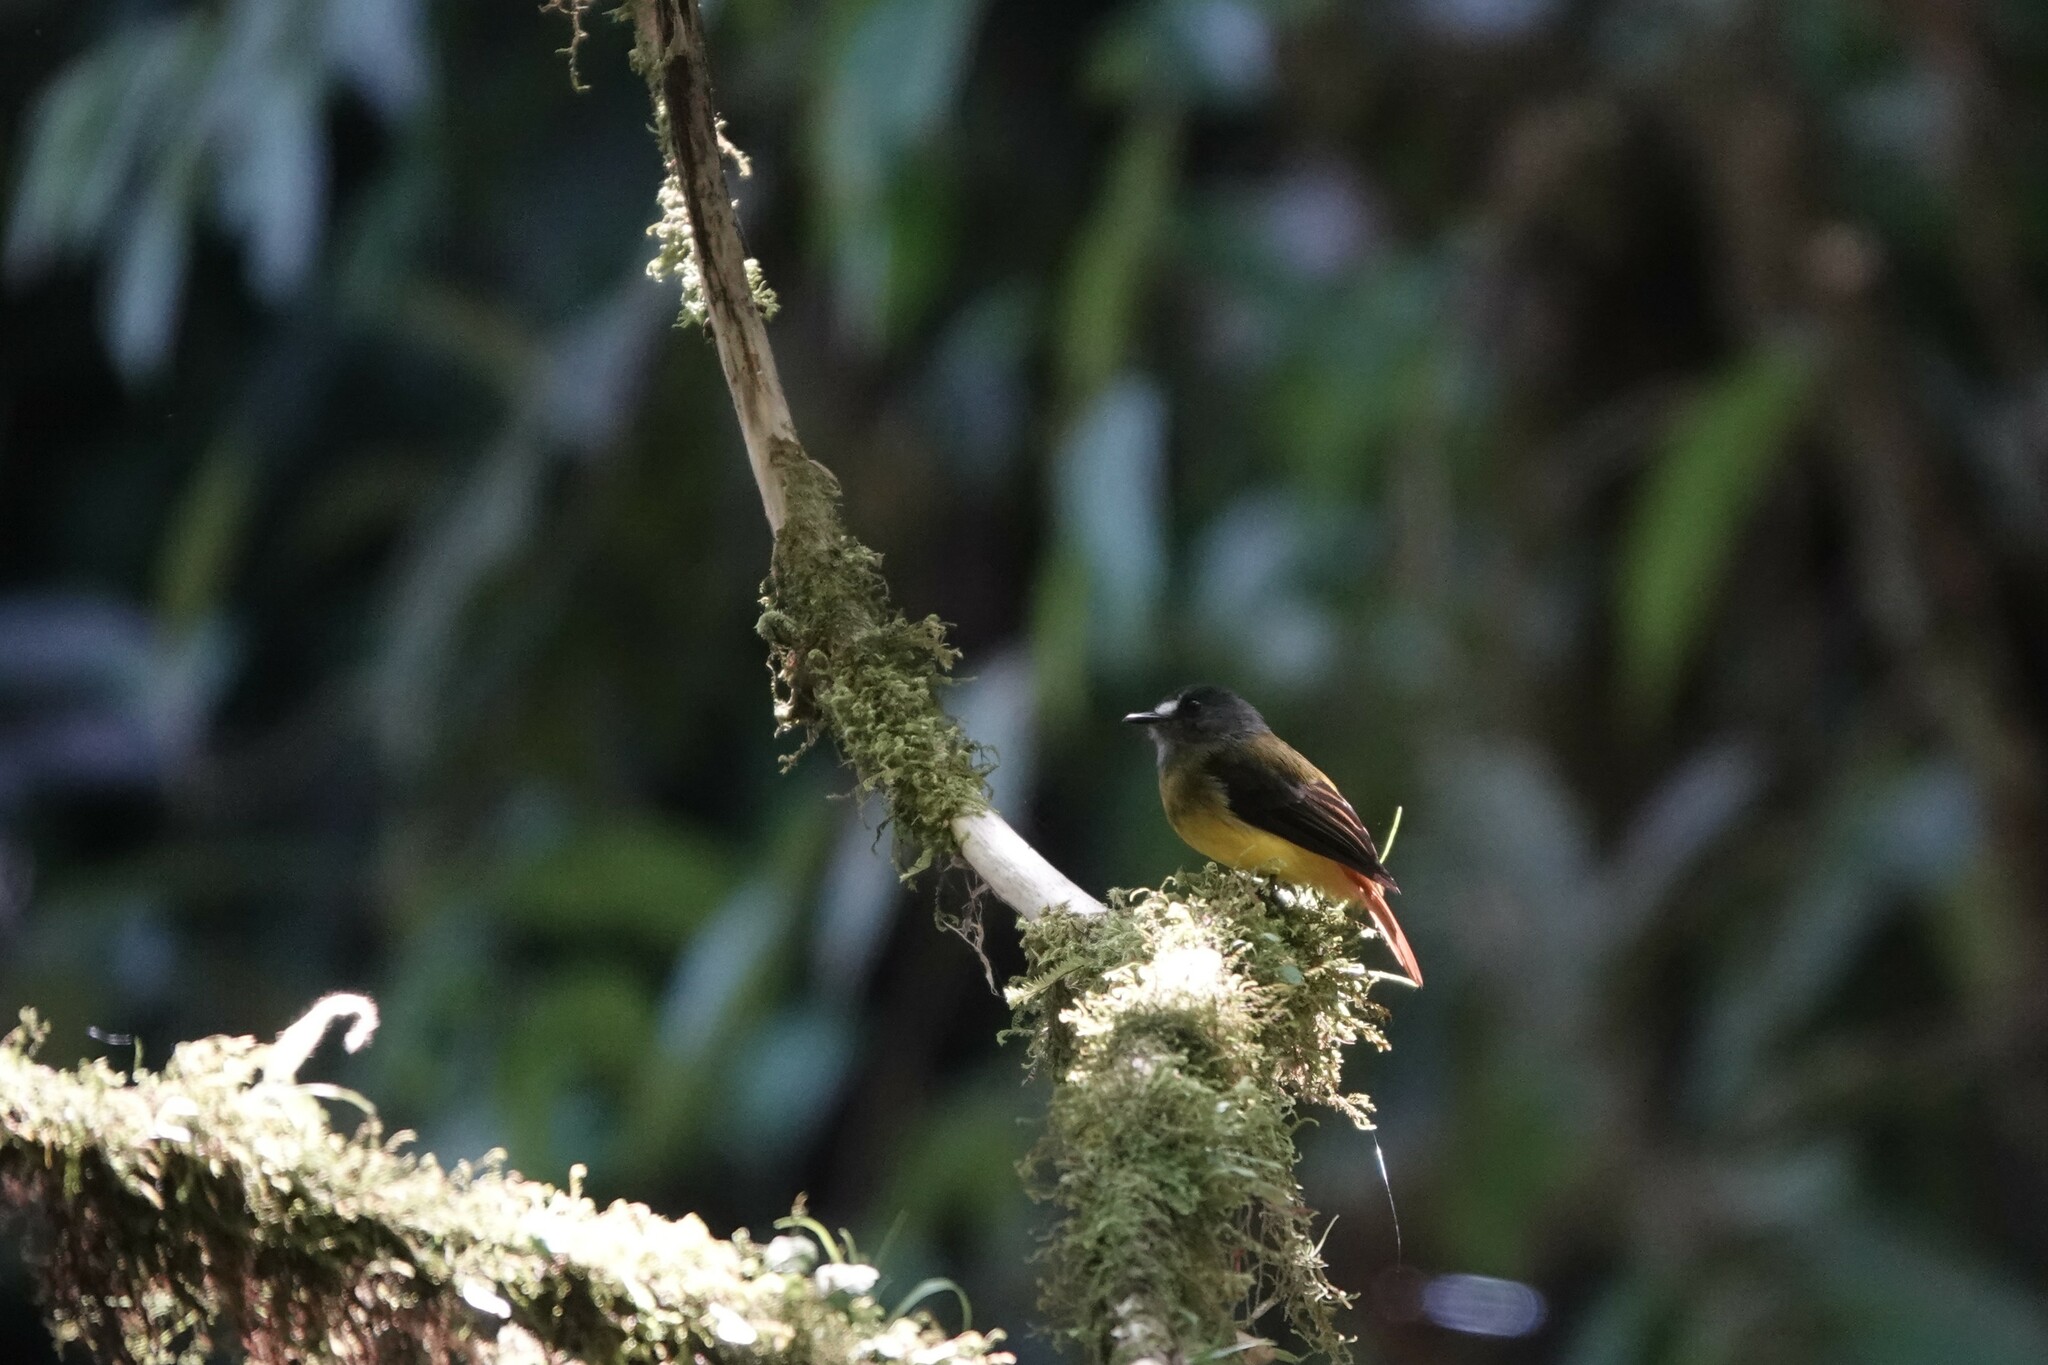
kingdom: Animalia
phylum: Chordata
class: Aves
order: Passeriformes
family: Tyrannidae
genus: Myiotriccus
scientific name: Myiotriccus ornatus
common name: Ornate flycatcher
